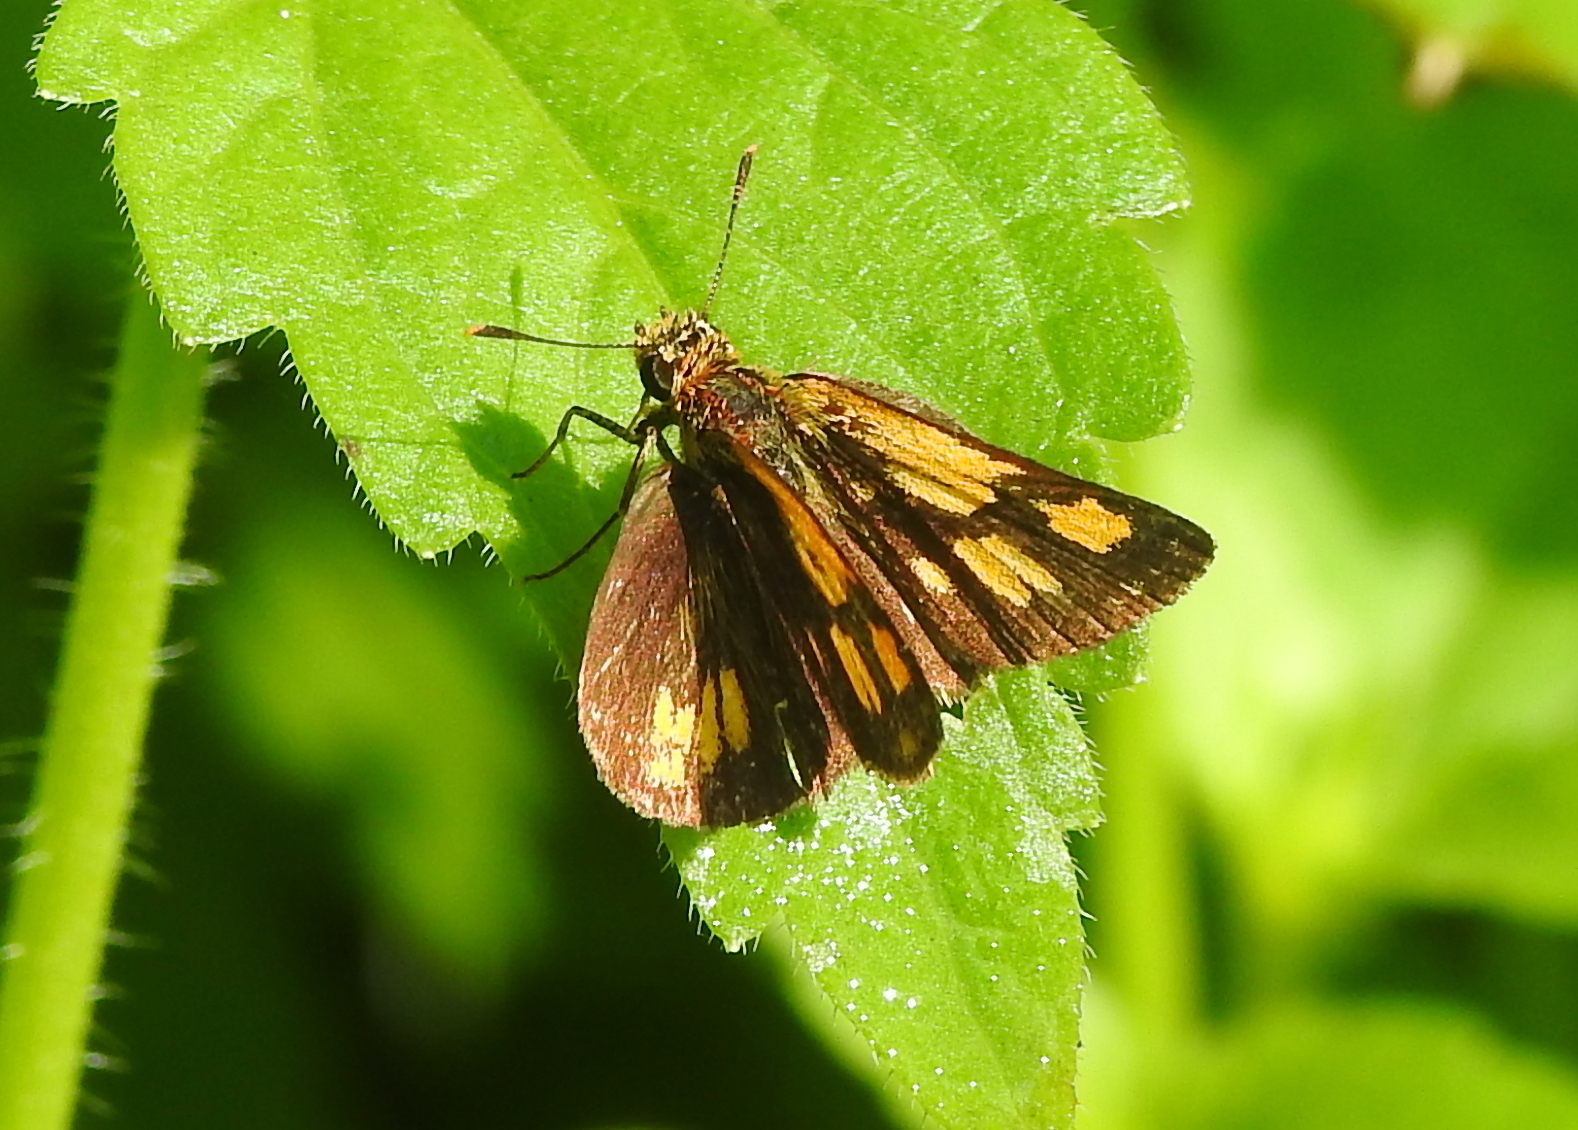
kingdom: Animalia
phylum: Arthropoda
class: Insecta
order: Lepidoptera
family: Hesperiidae
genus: Ampittia
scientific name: Ampittia dioscorides
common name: Common bush hopper
